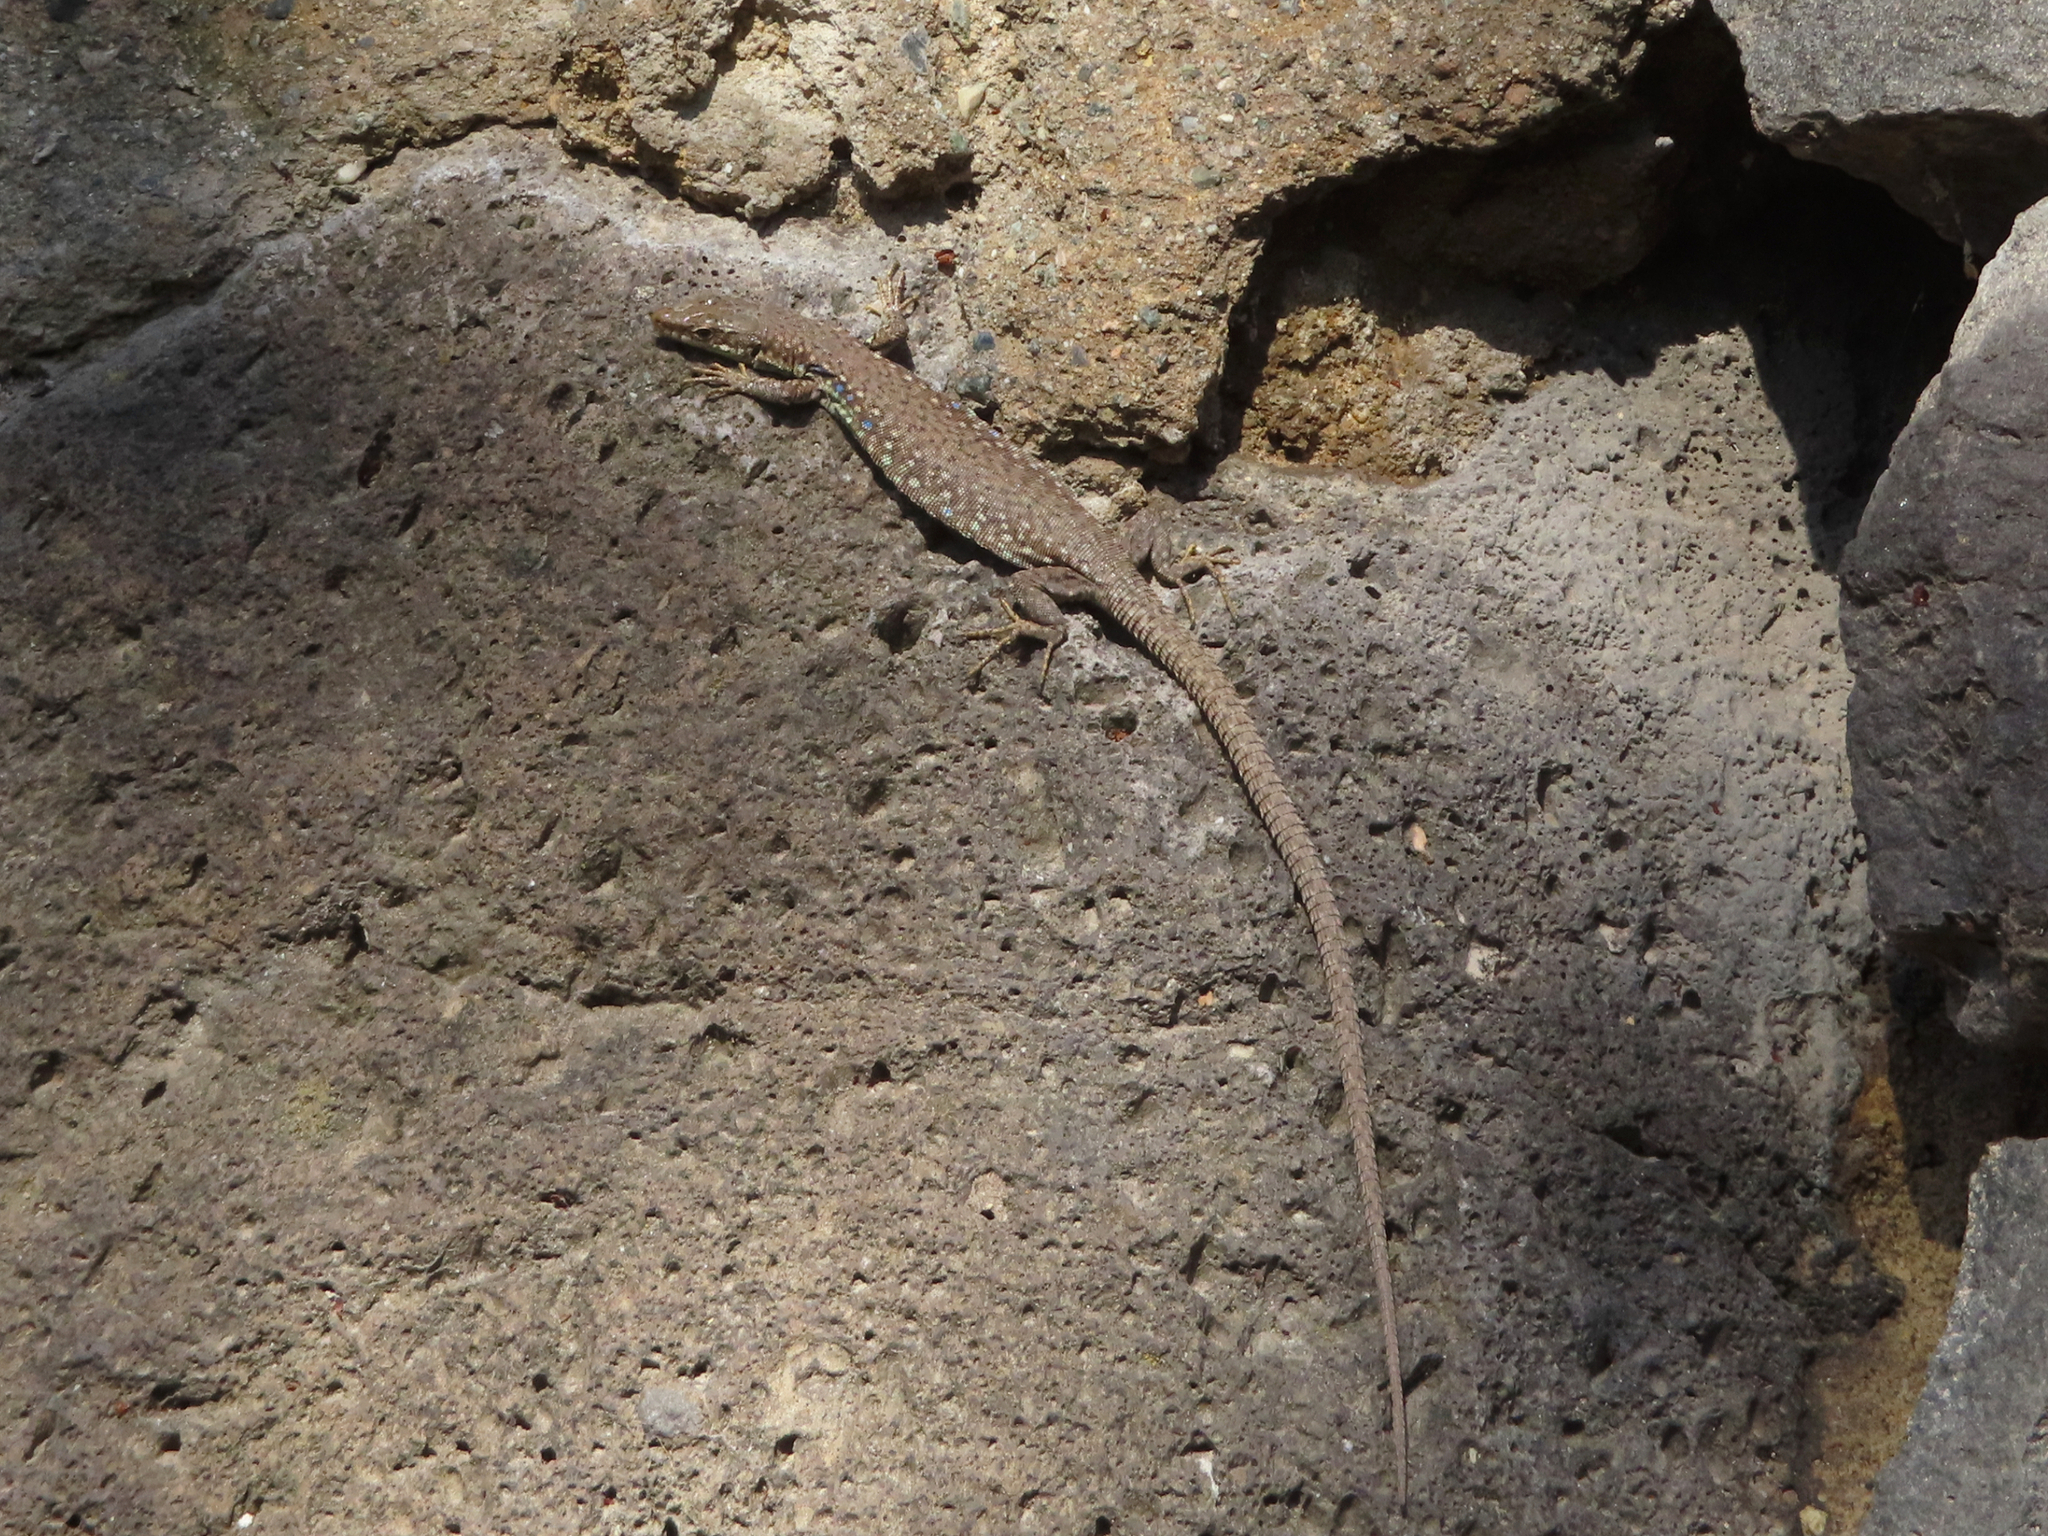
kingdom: Animalia
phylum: Chordata
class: Squamata
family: Lacertidae
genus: Darevskia
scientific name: Darevskia
